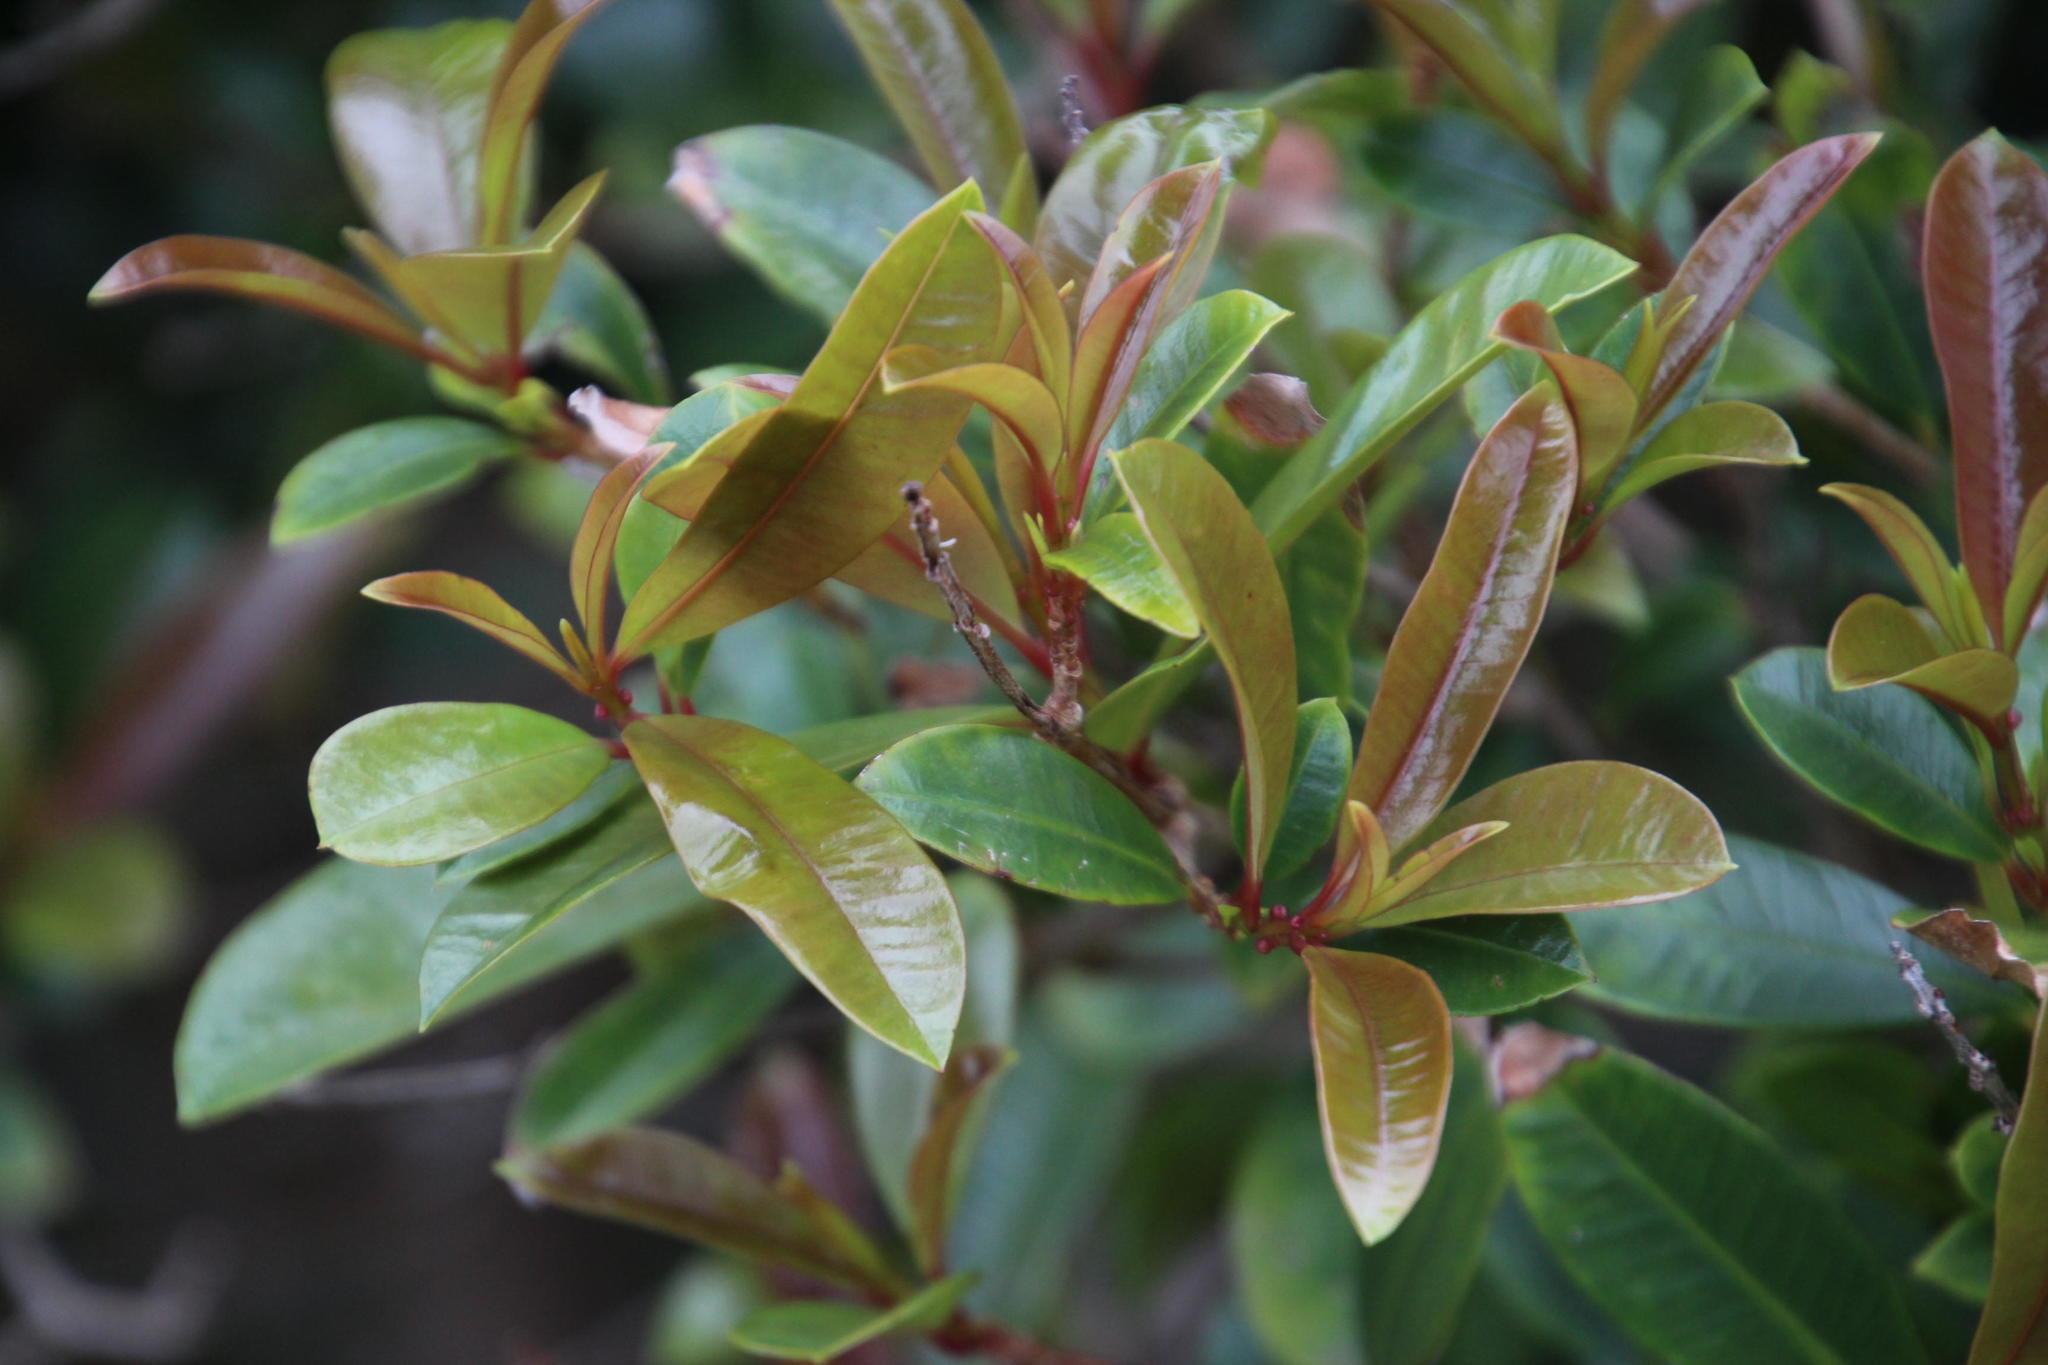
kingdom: Plantae
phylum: Tracheophyta
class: Magnoliopsida
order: Myrtales
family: Myrtaceae
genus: Syzygium
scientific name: Syzygium australe
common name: Australian brush-cherry
